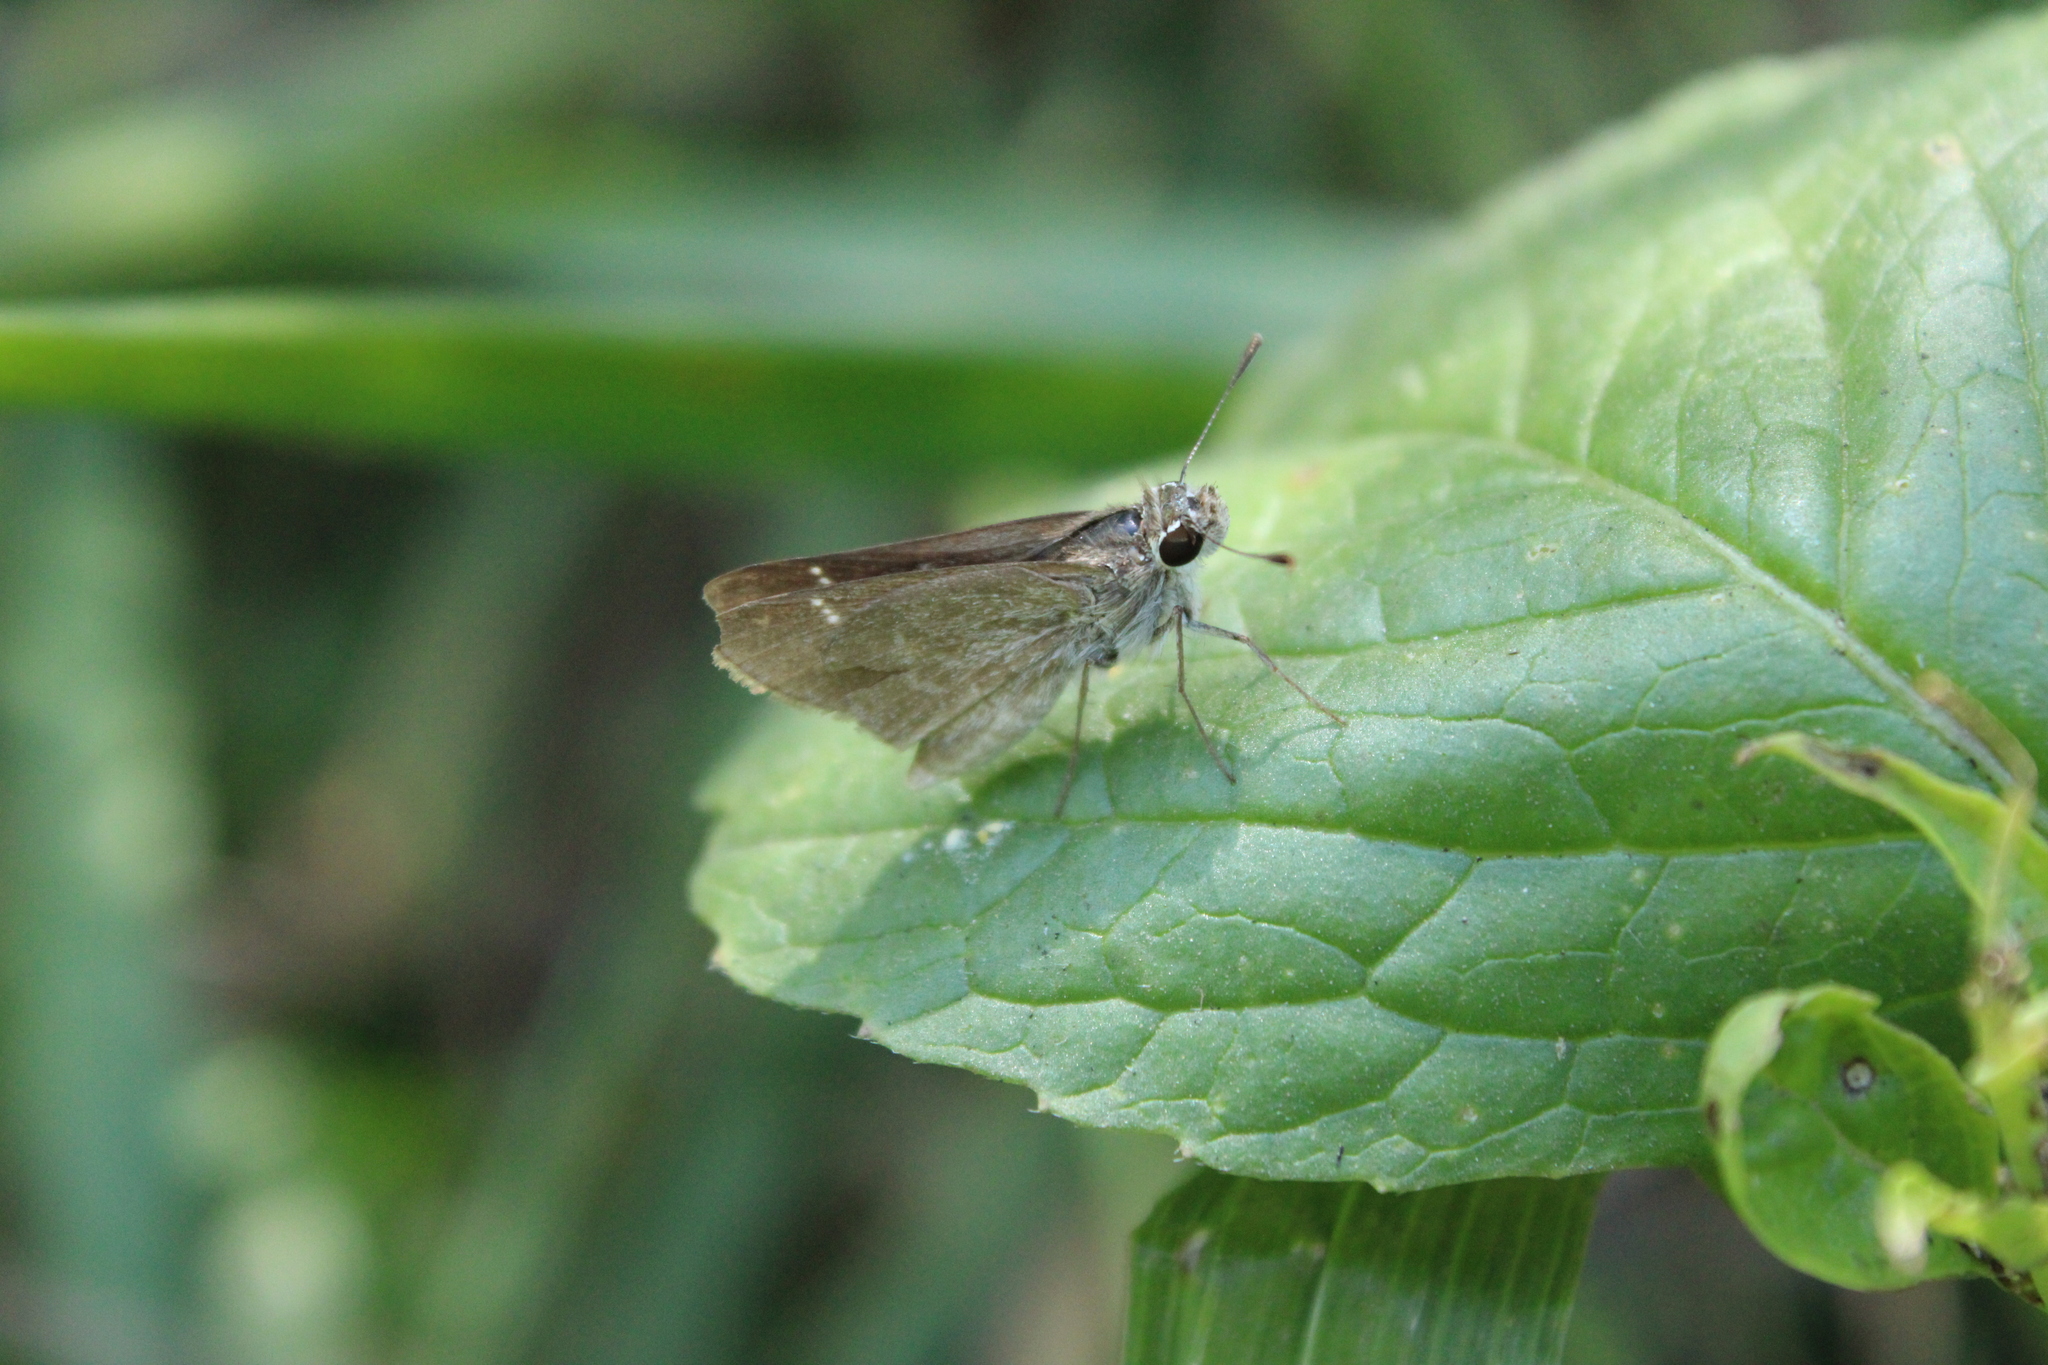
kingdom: Animalia
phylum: Arthropoda
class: Insecta
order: Lepidoptera
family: Hesperiidae
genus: Lerodea
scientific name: Lerodea eufala
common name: Eufala skipper
